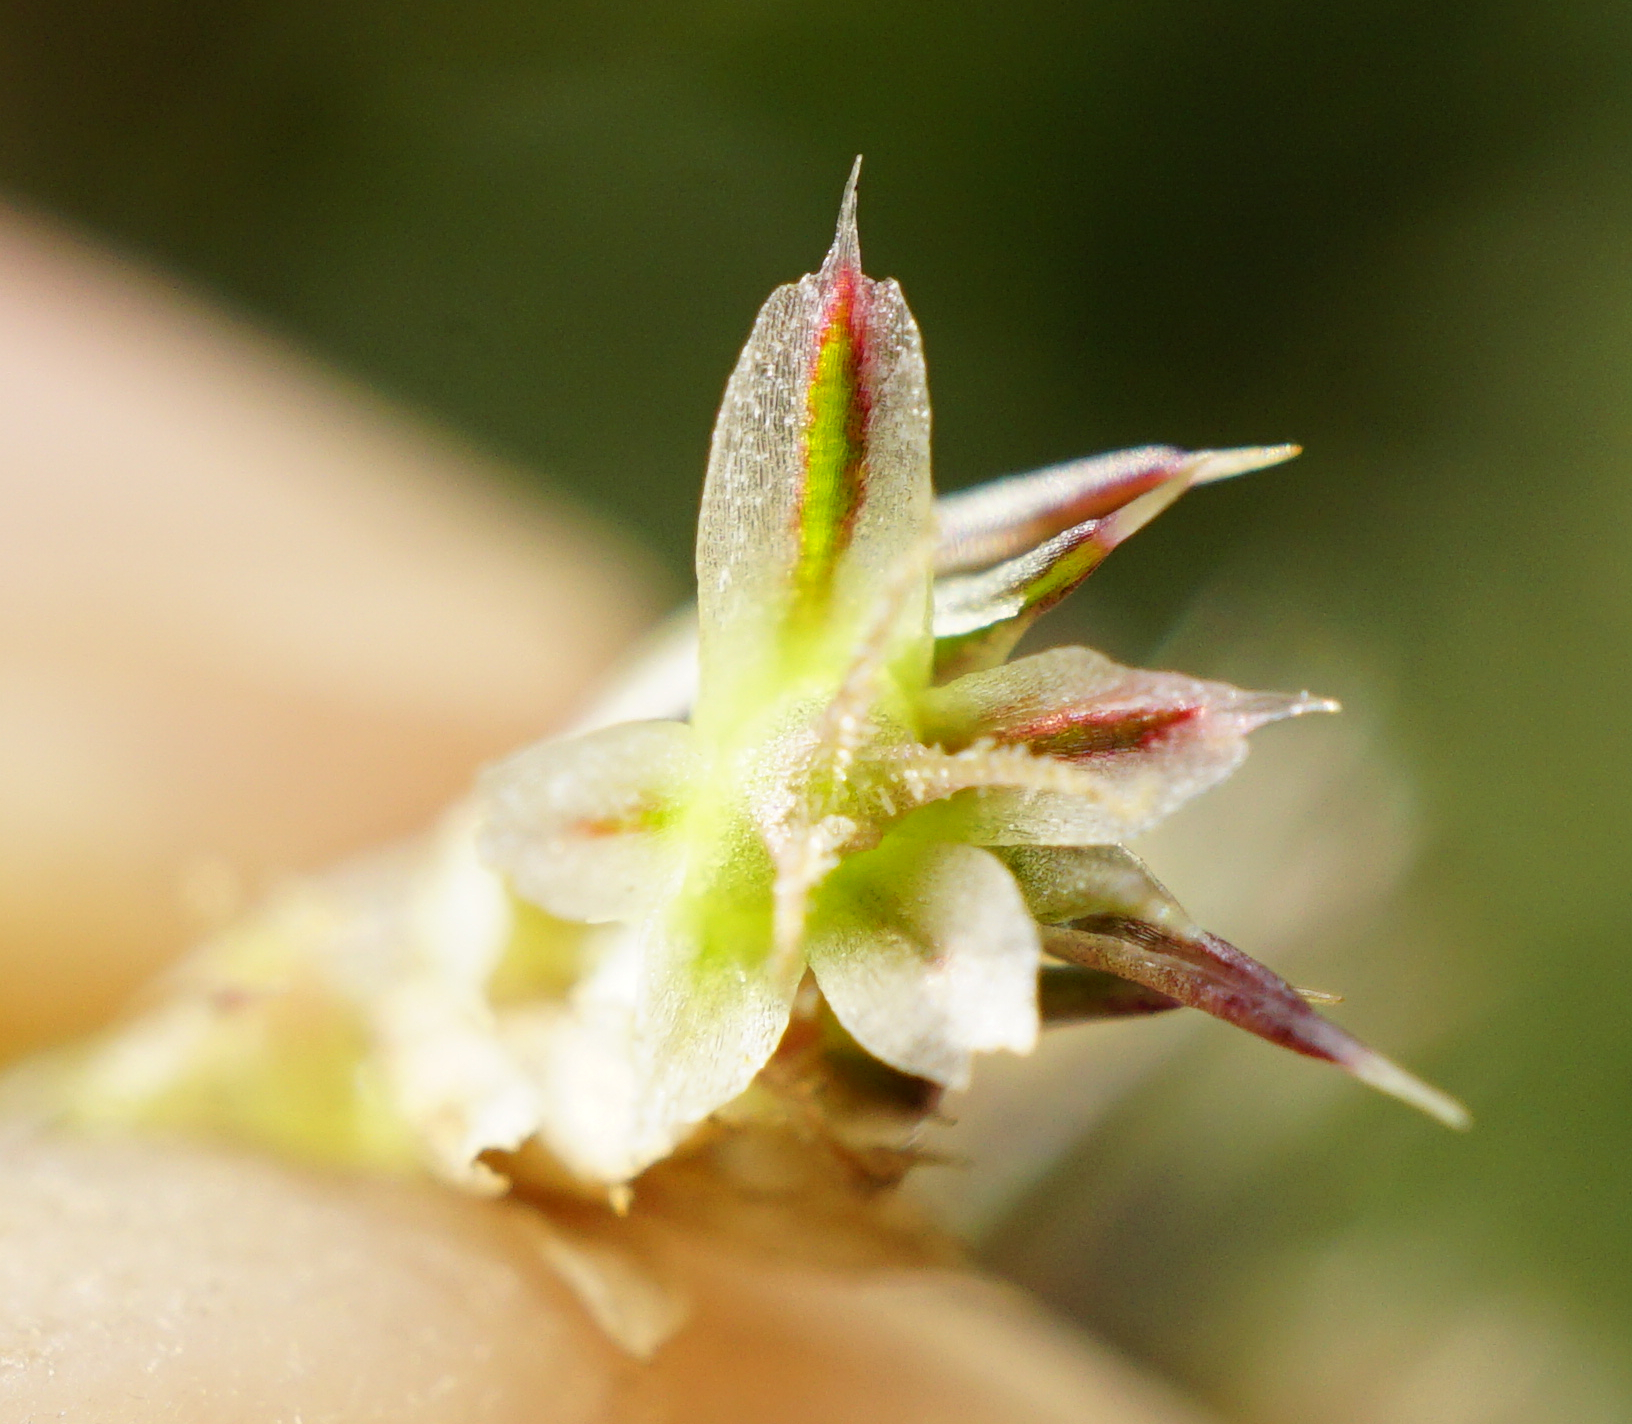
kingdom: Plantae
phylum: Tracheophyta
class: Magnoliopsida
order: Caryophyllales
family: Amaranthaceae
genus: Amaranthus
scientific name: Amaranthus retroflexus
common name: Redroot amaranth
